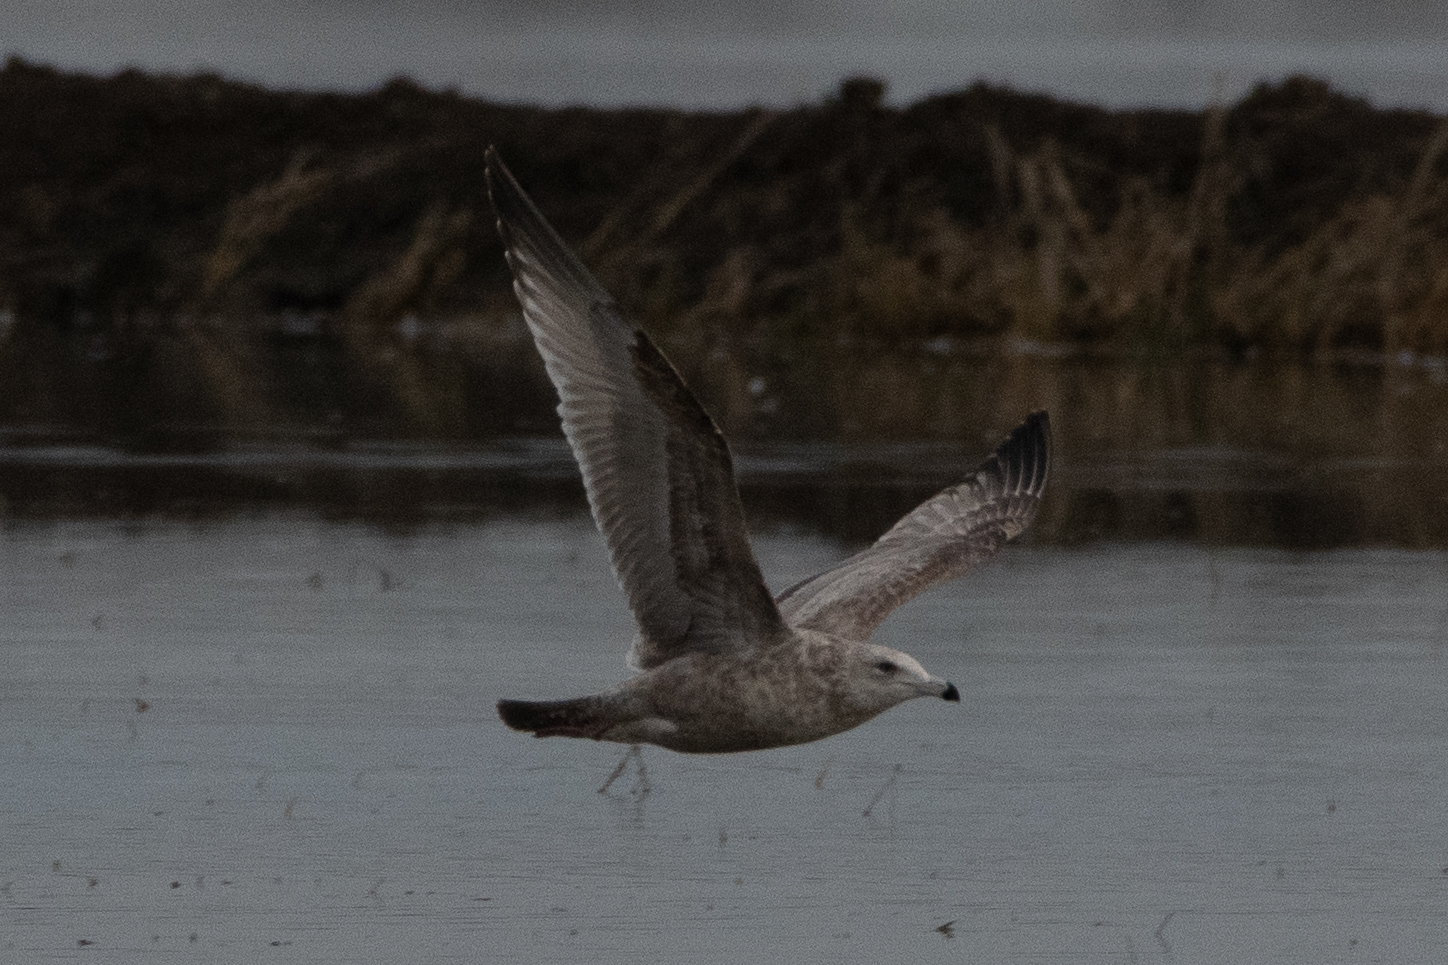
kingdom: Animalia
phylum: Chordata
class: Aves
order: Charadriiformes
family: Laridae
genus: Larus
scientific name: Larus argentatus
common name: Herring gull
